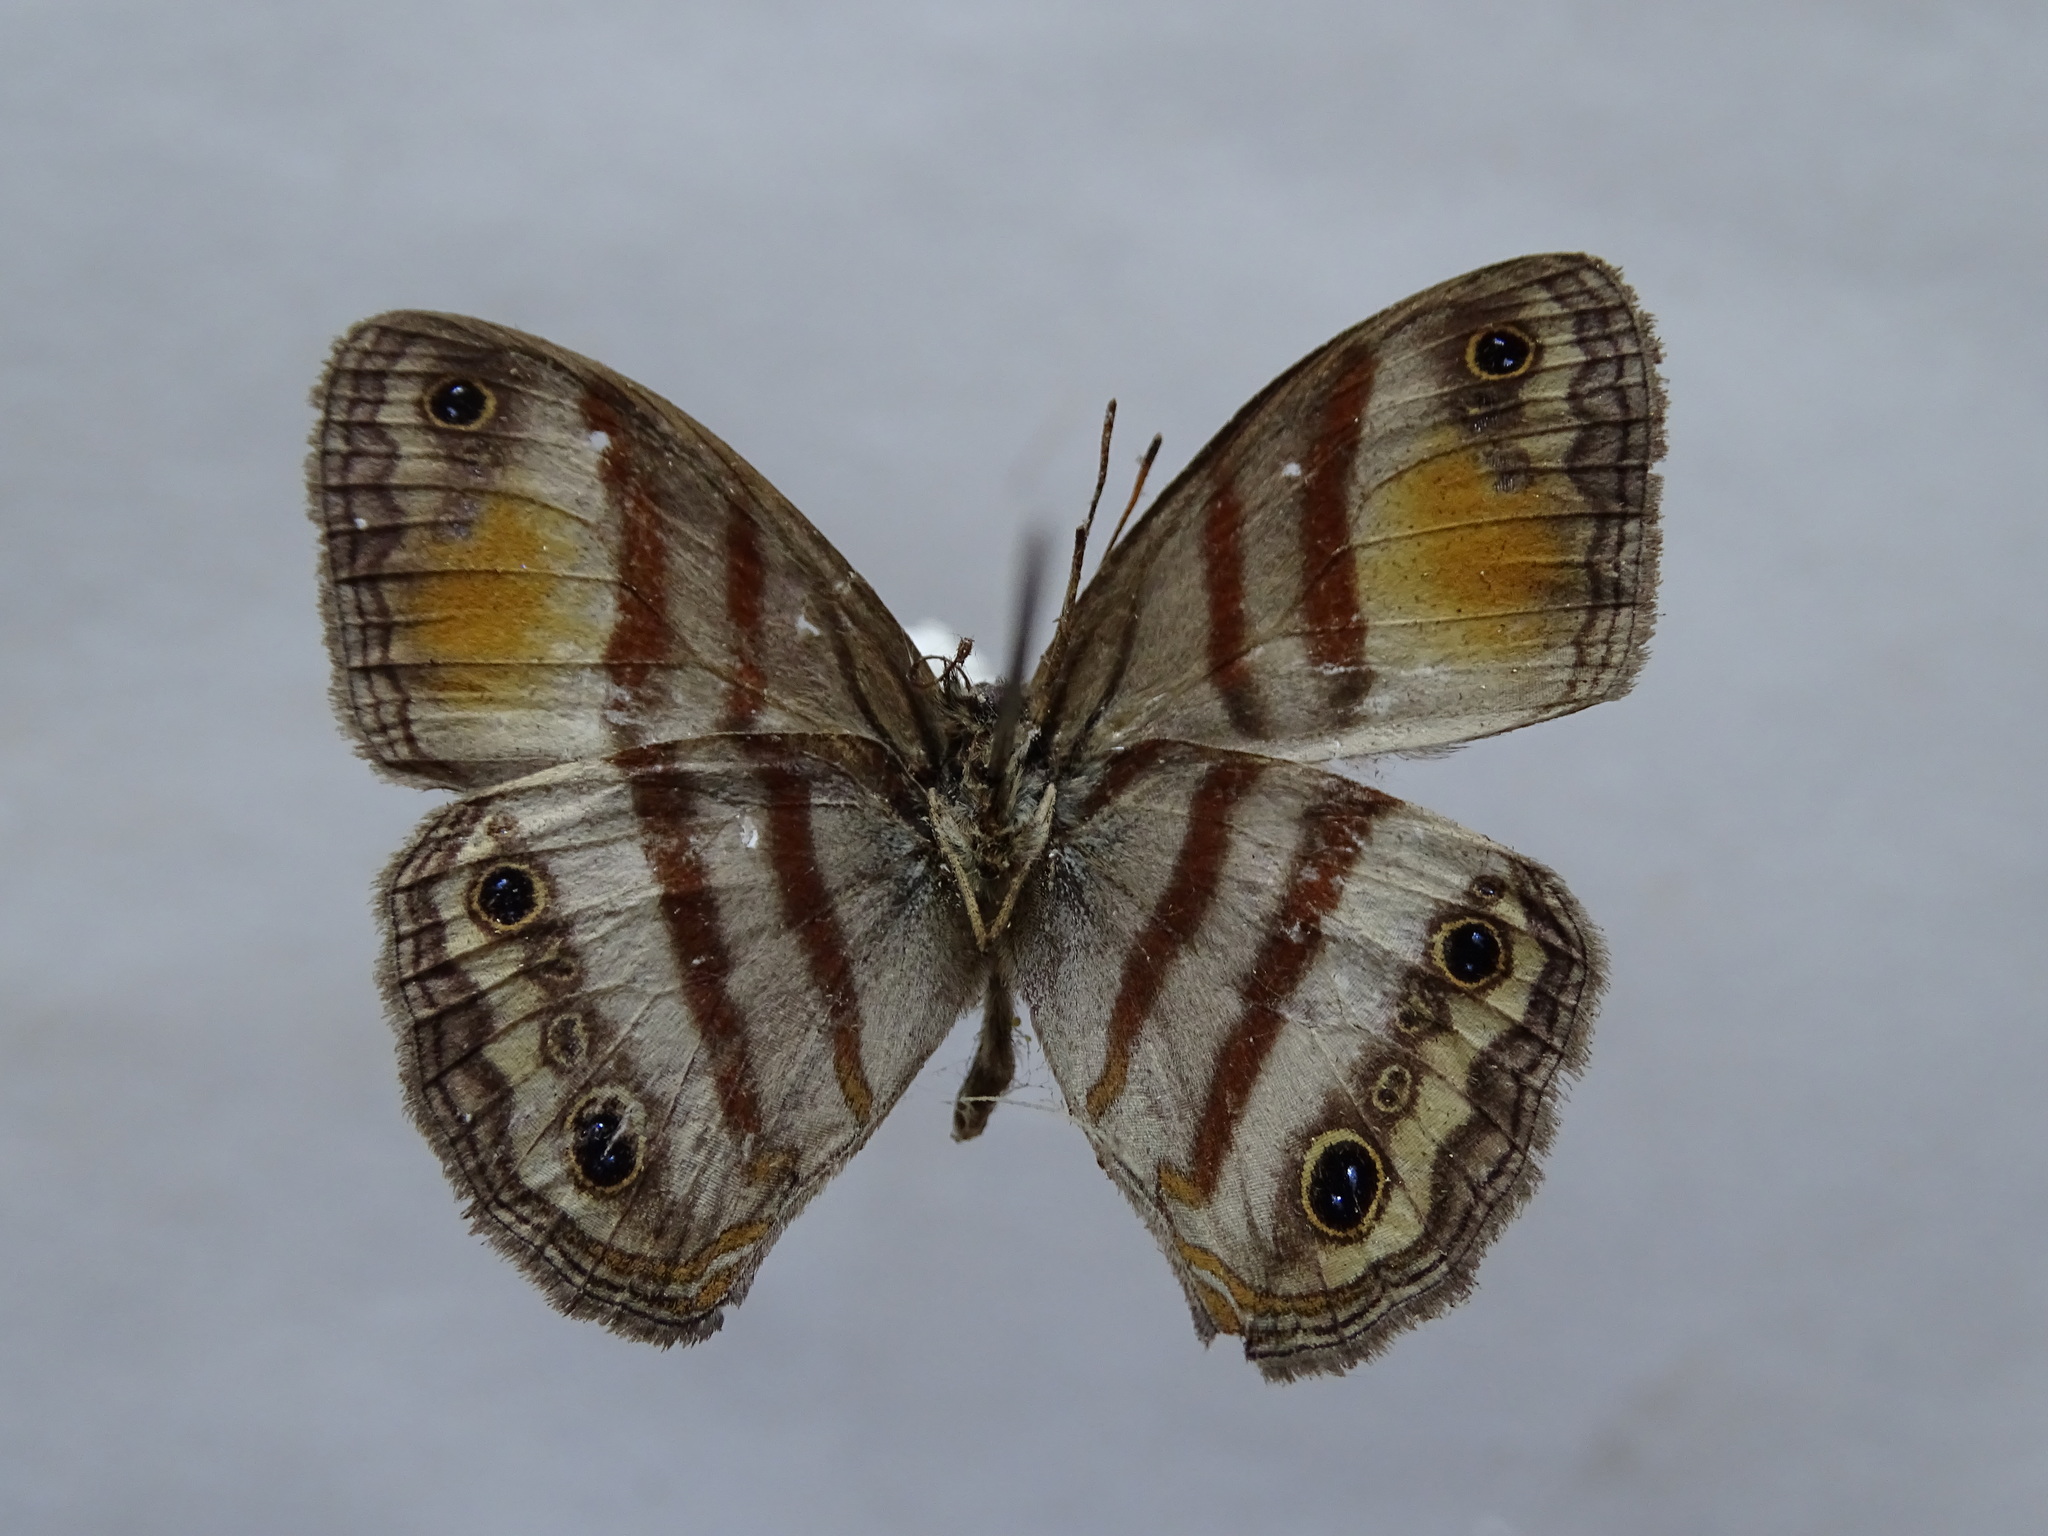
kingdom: Animalia
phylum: Arthropoda
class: Insecta
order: Lepidoptera
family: Nymphalidae
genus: Paryphthimoides
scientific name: Paryphthimoides
